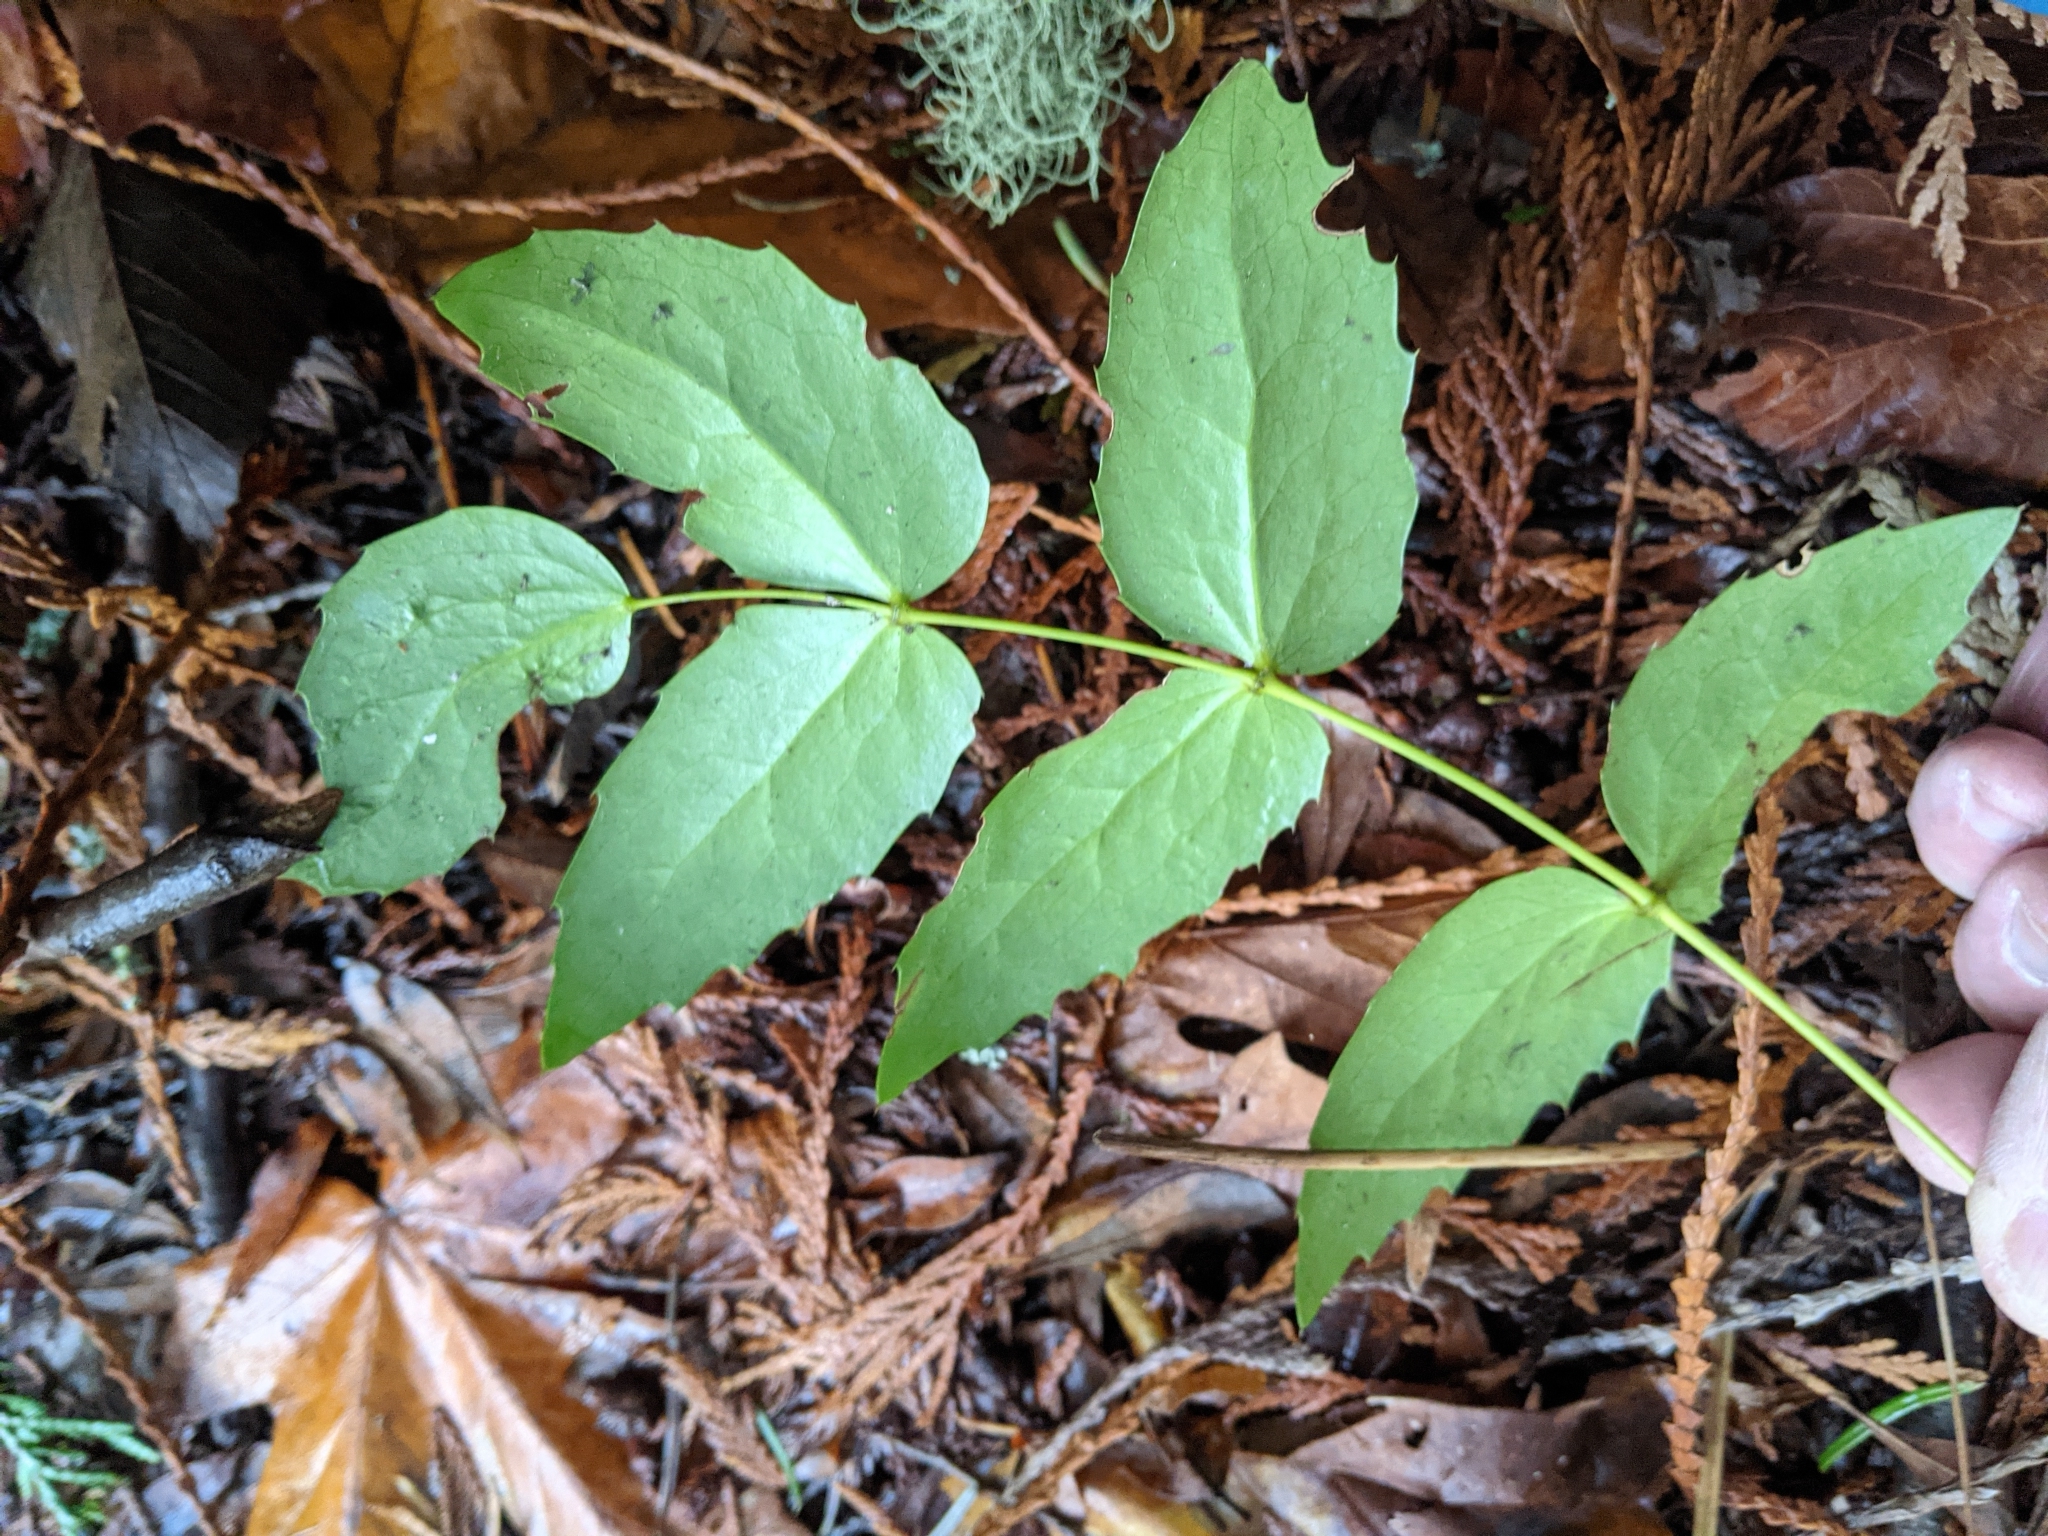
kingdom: Plantae
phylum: Tracheophyta
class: Magnoliopsida
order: Ranunculales
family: Berberidaceae
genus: Mahonia
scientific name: Mahonia nervosa
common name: Cascade oregon-grape
